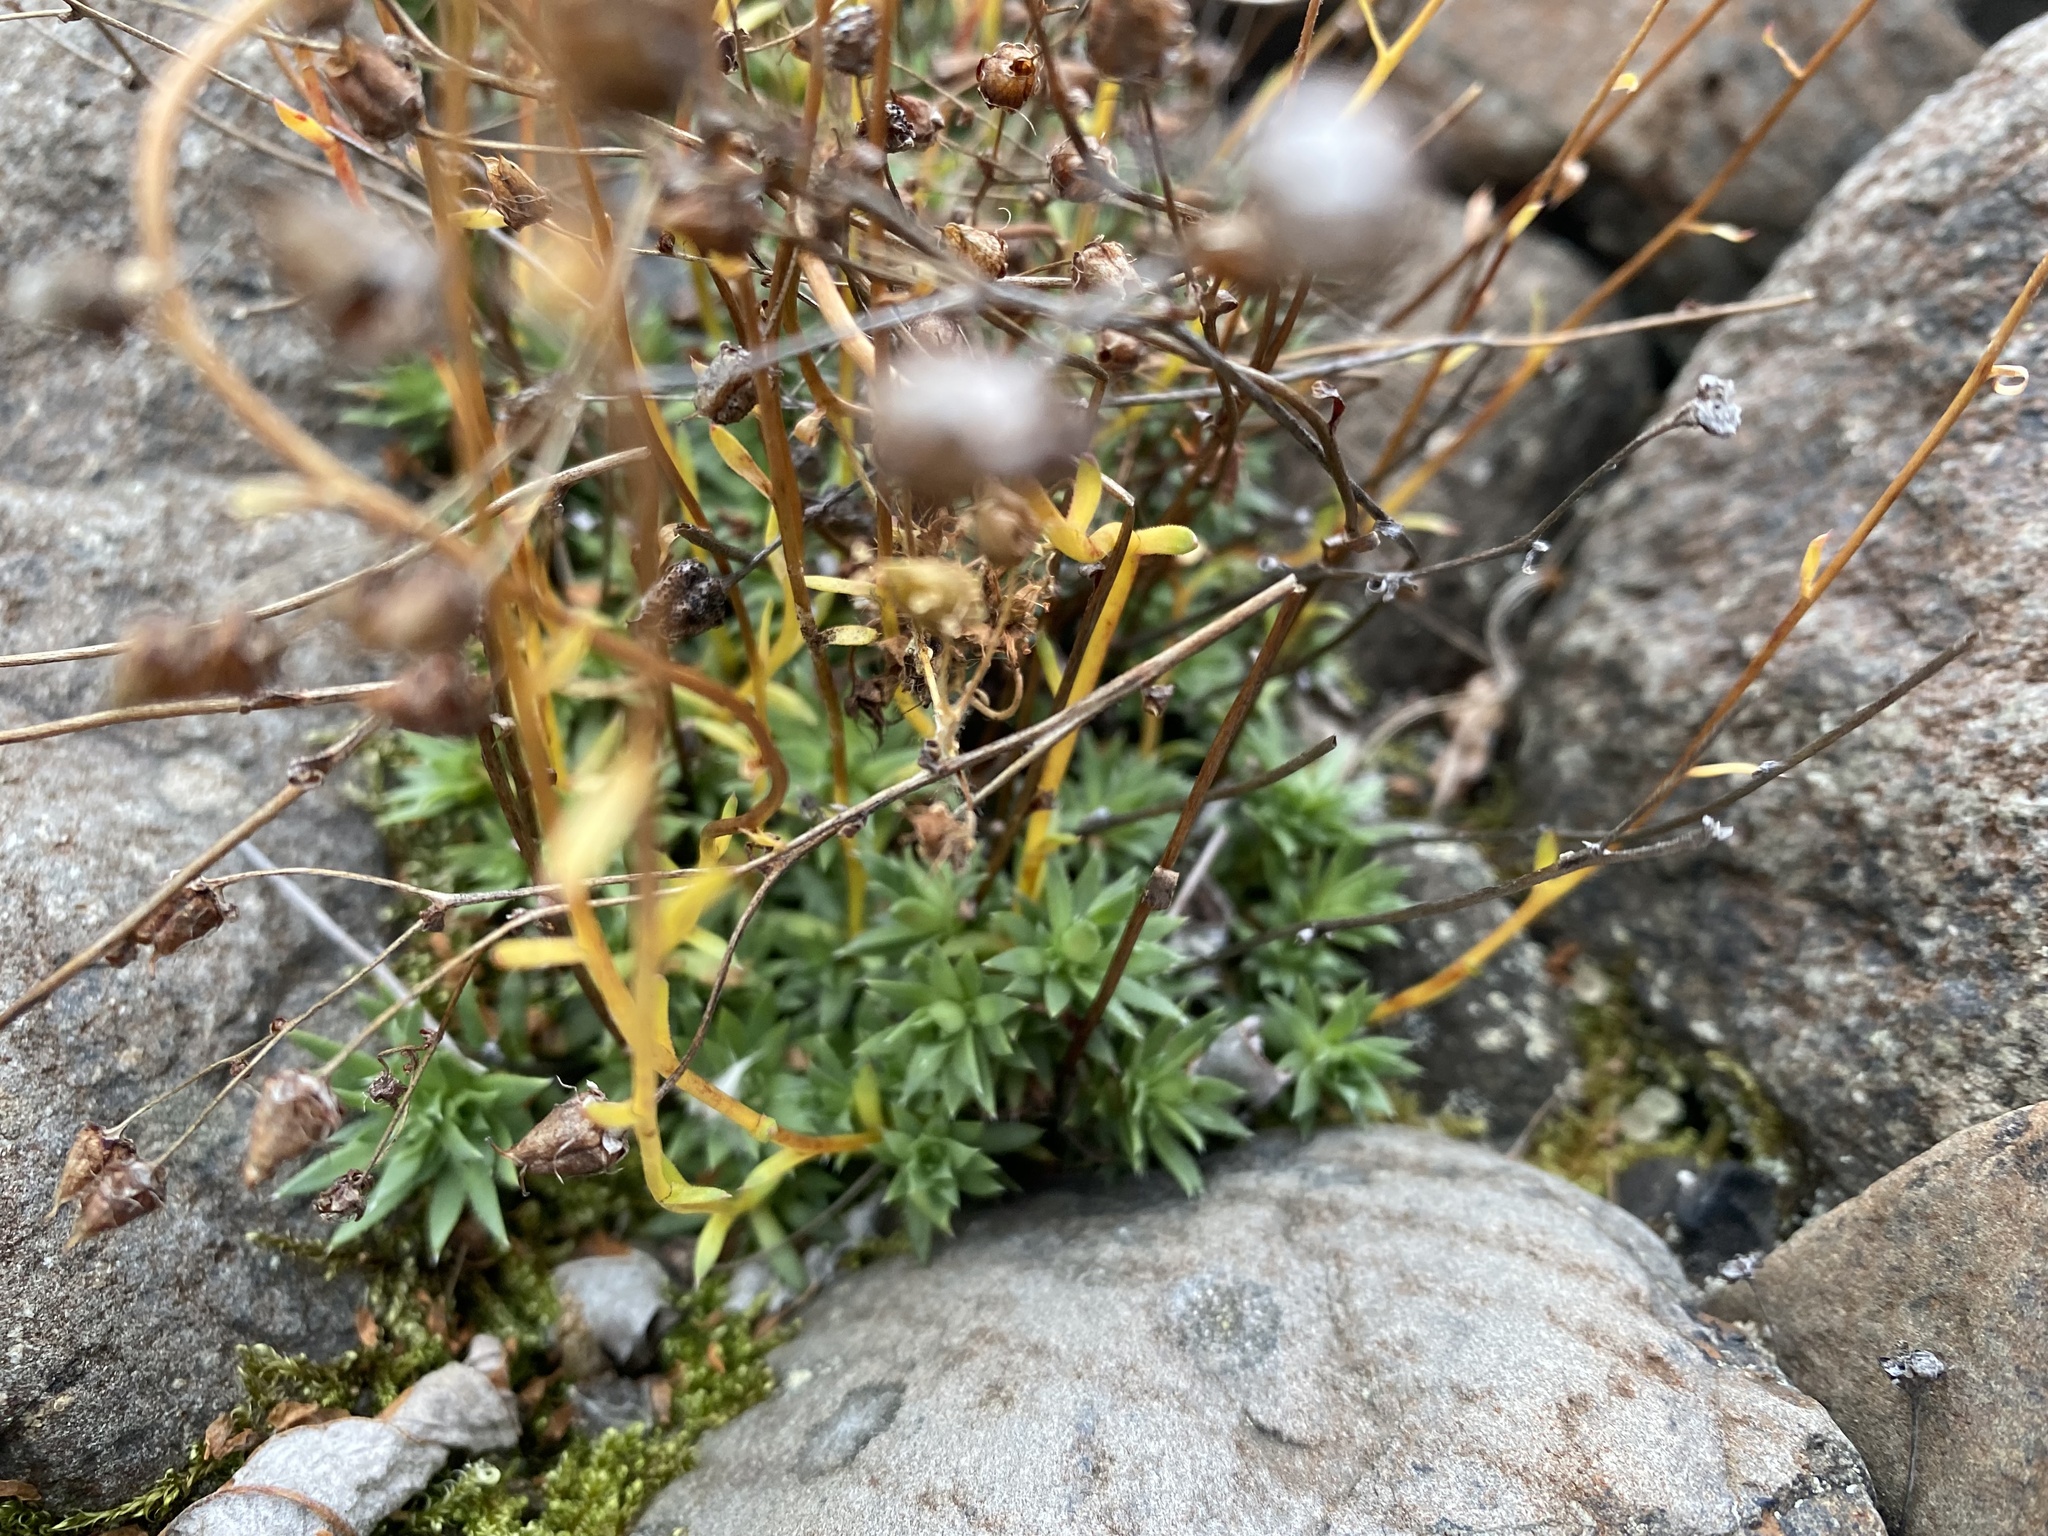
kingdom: Plantae
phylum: Tracheophyta
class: Magnoliopsida
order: Saxifragales
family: Saxifragaceae
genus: Saxifraga
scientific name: Saxifraga
